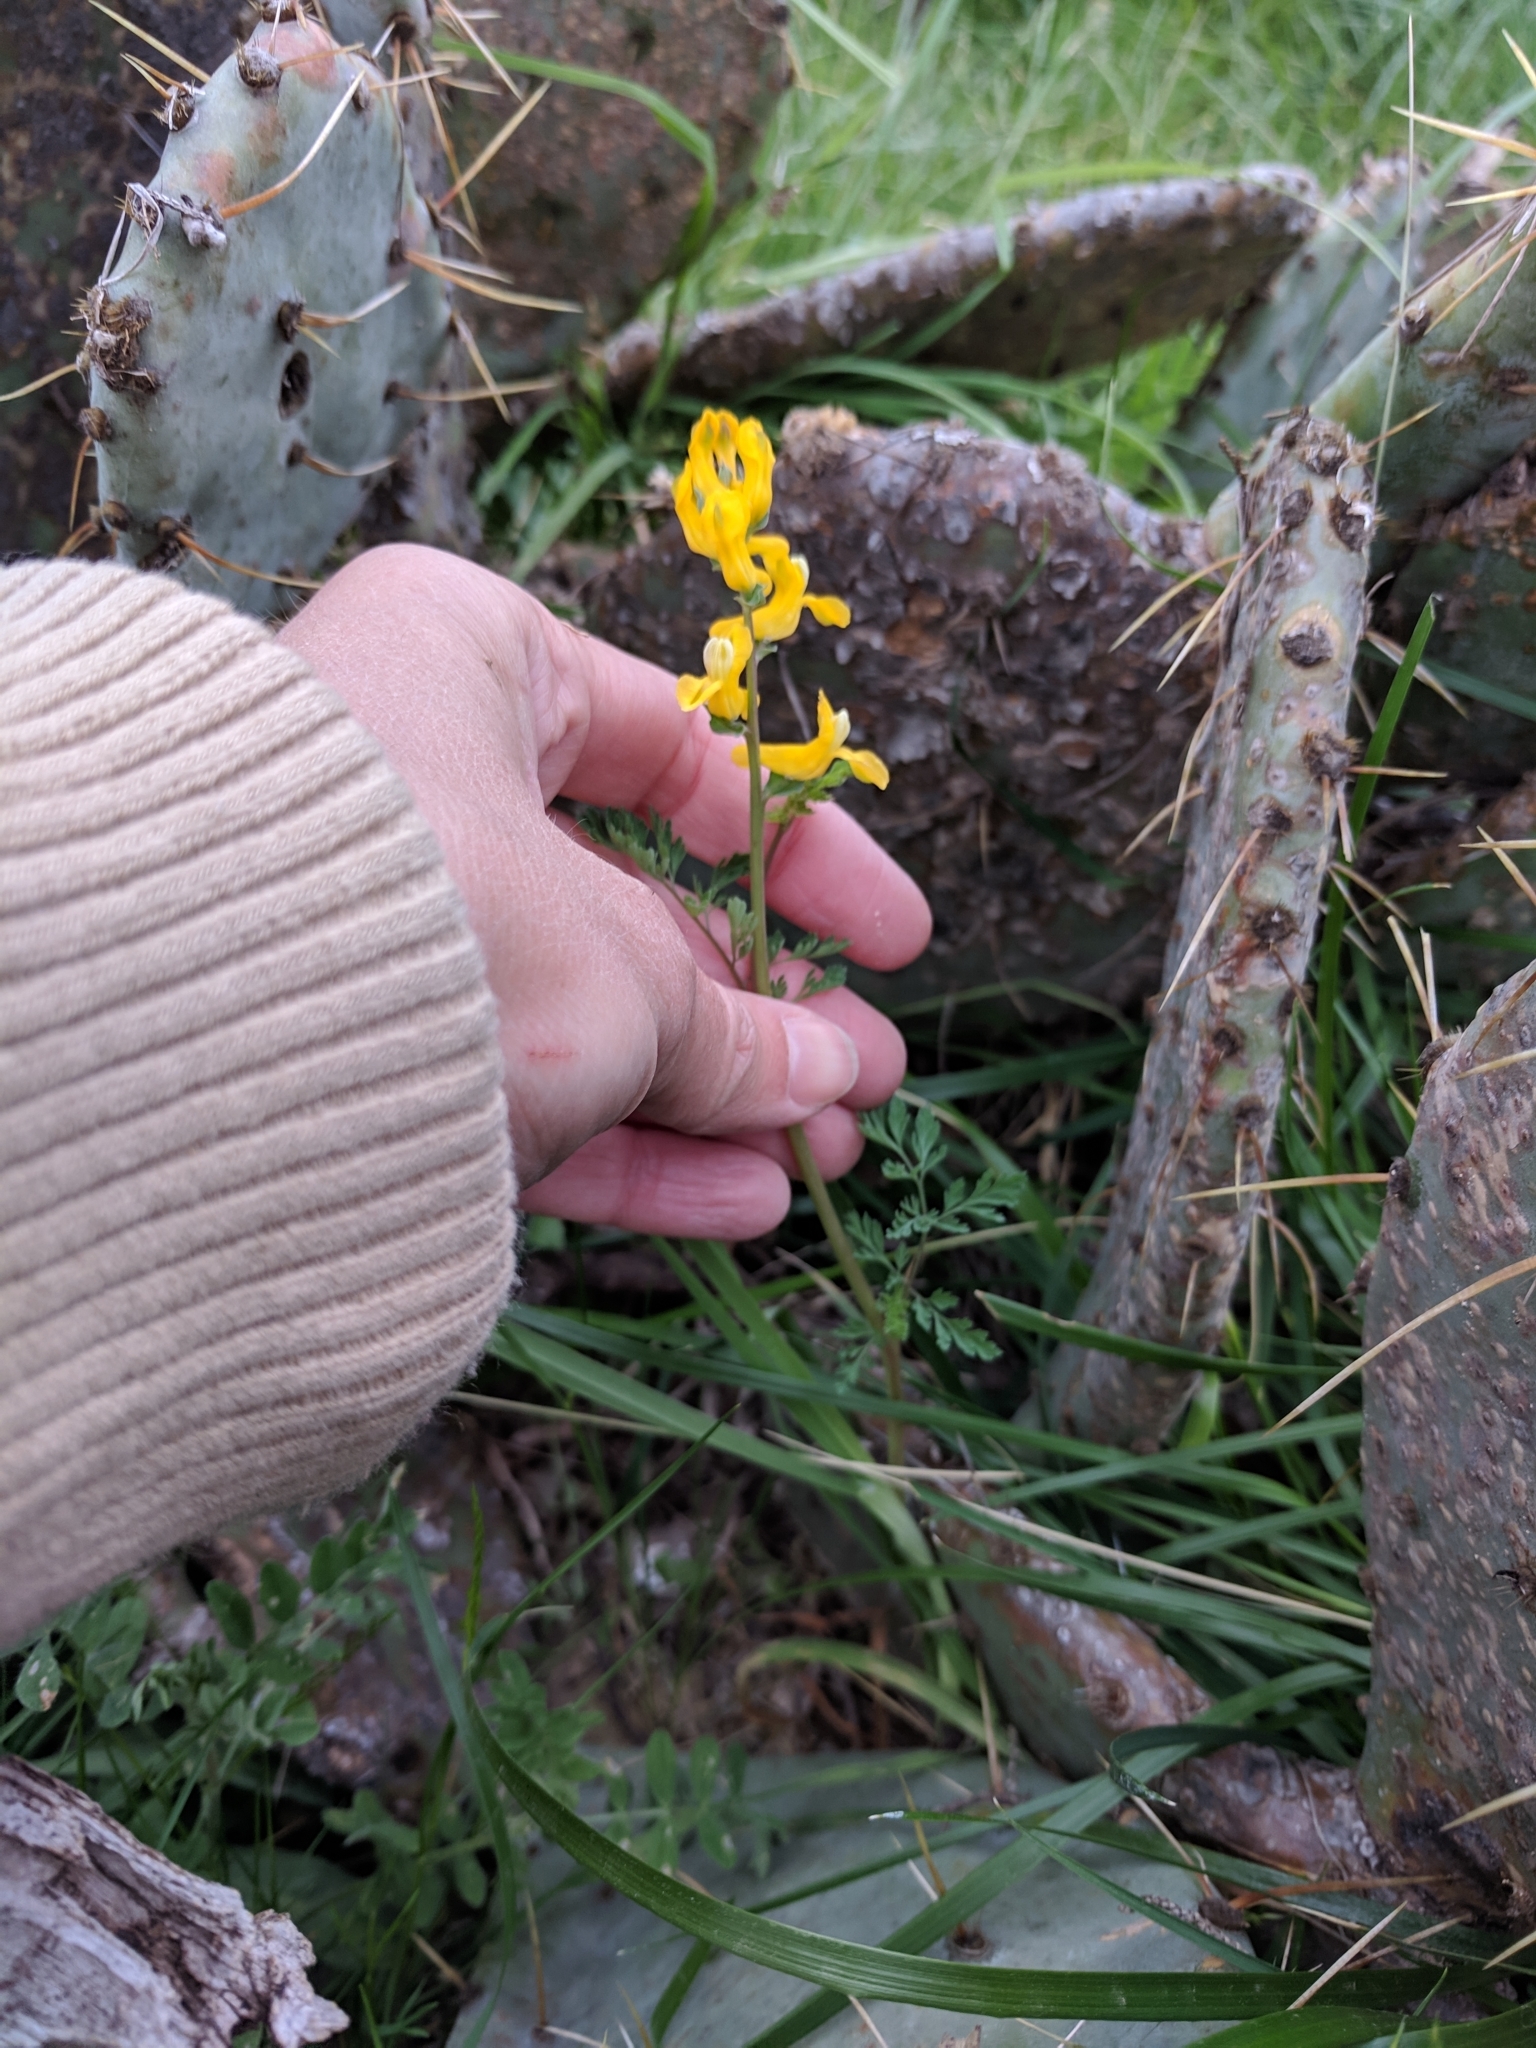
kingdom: Plantae
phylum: Tracheophyta
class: Magnoliopsida
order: Ranunculales
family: Papaveraceae
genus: Corydalis
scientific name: Corydalis curvisiliqua
